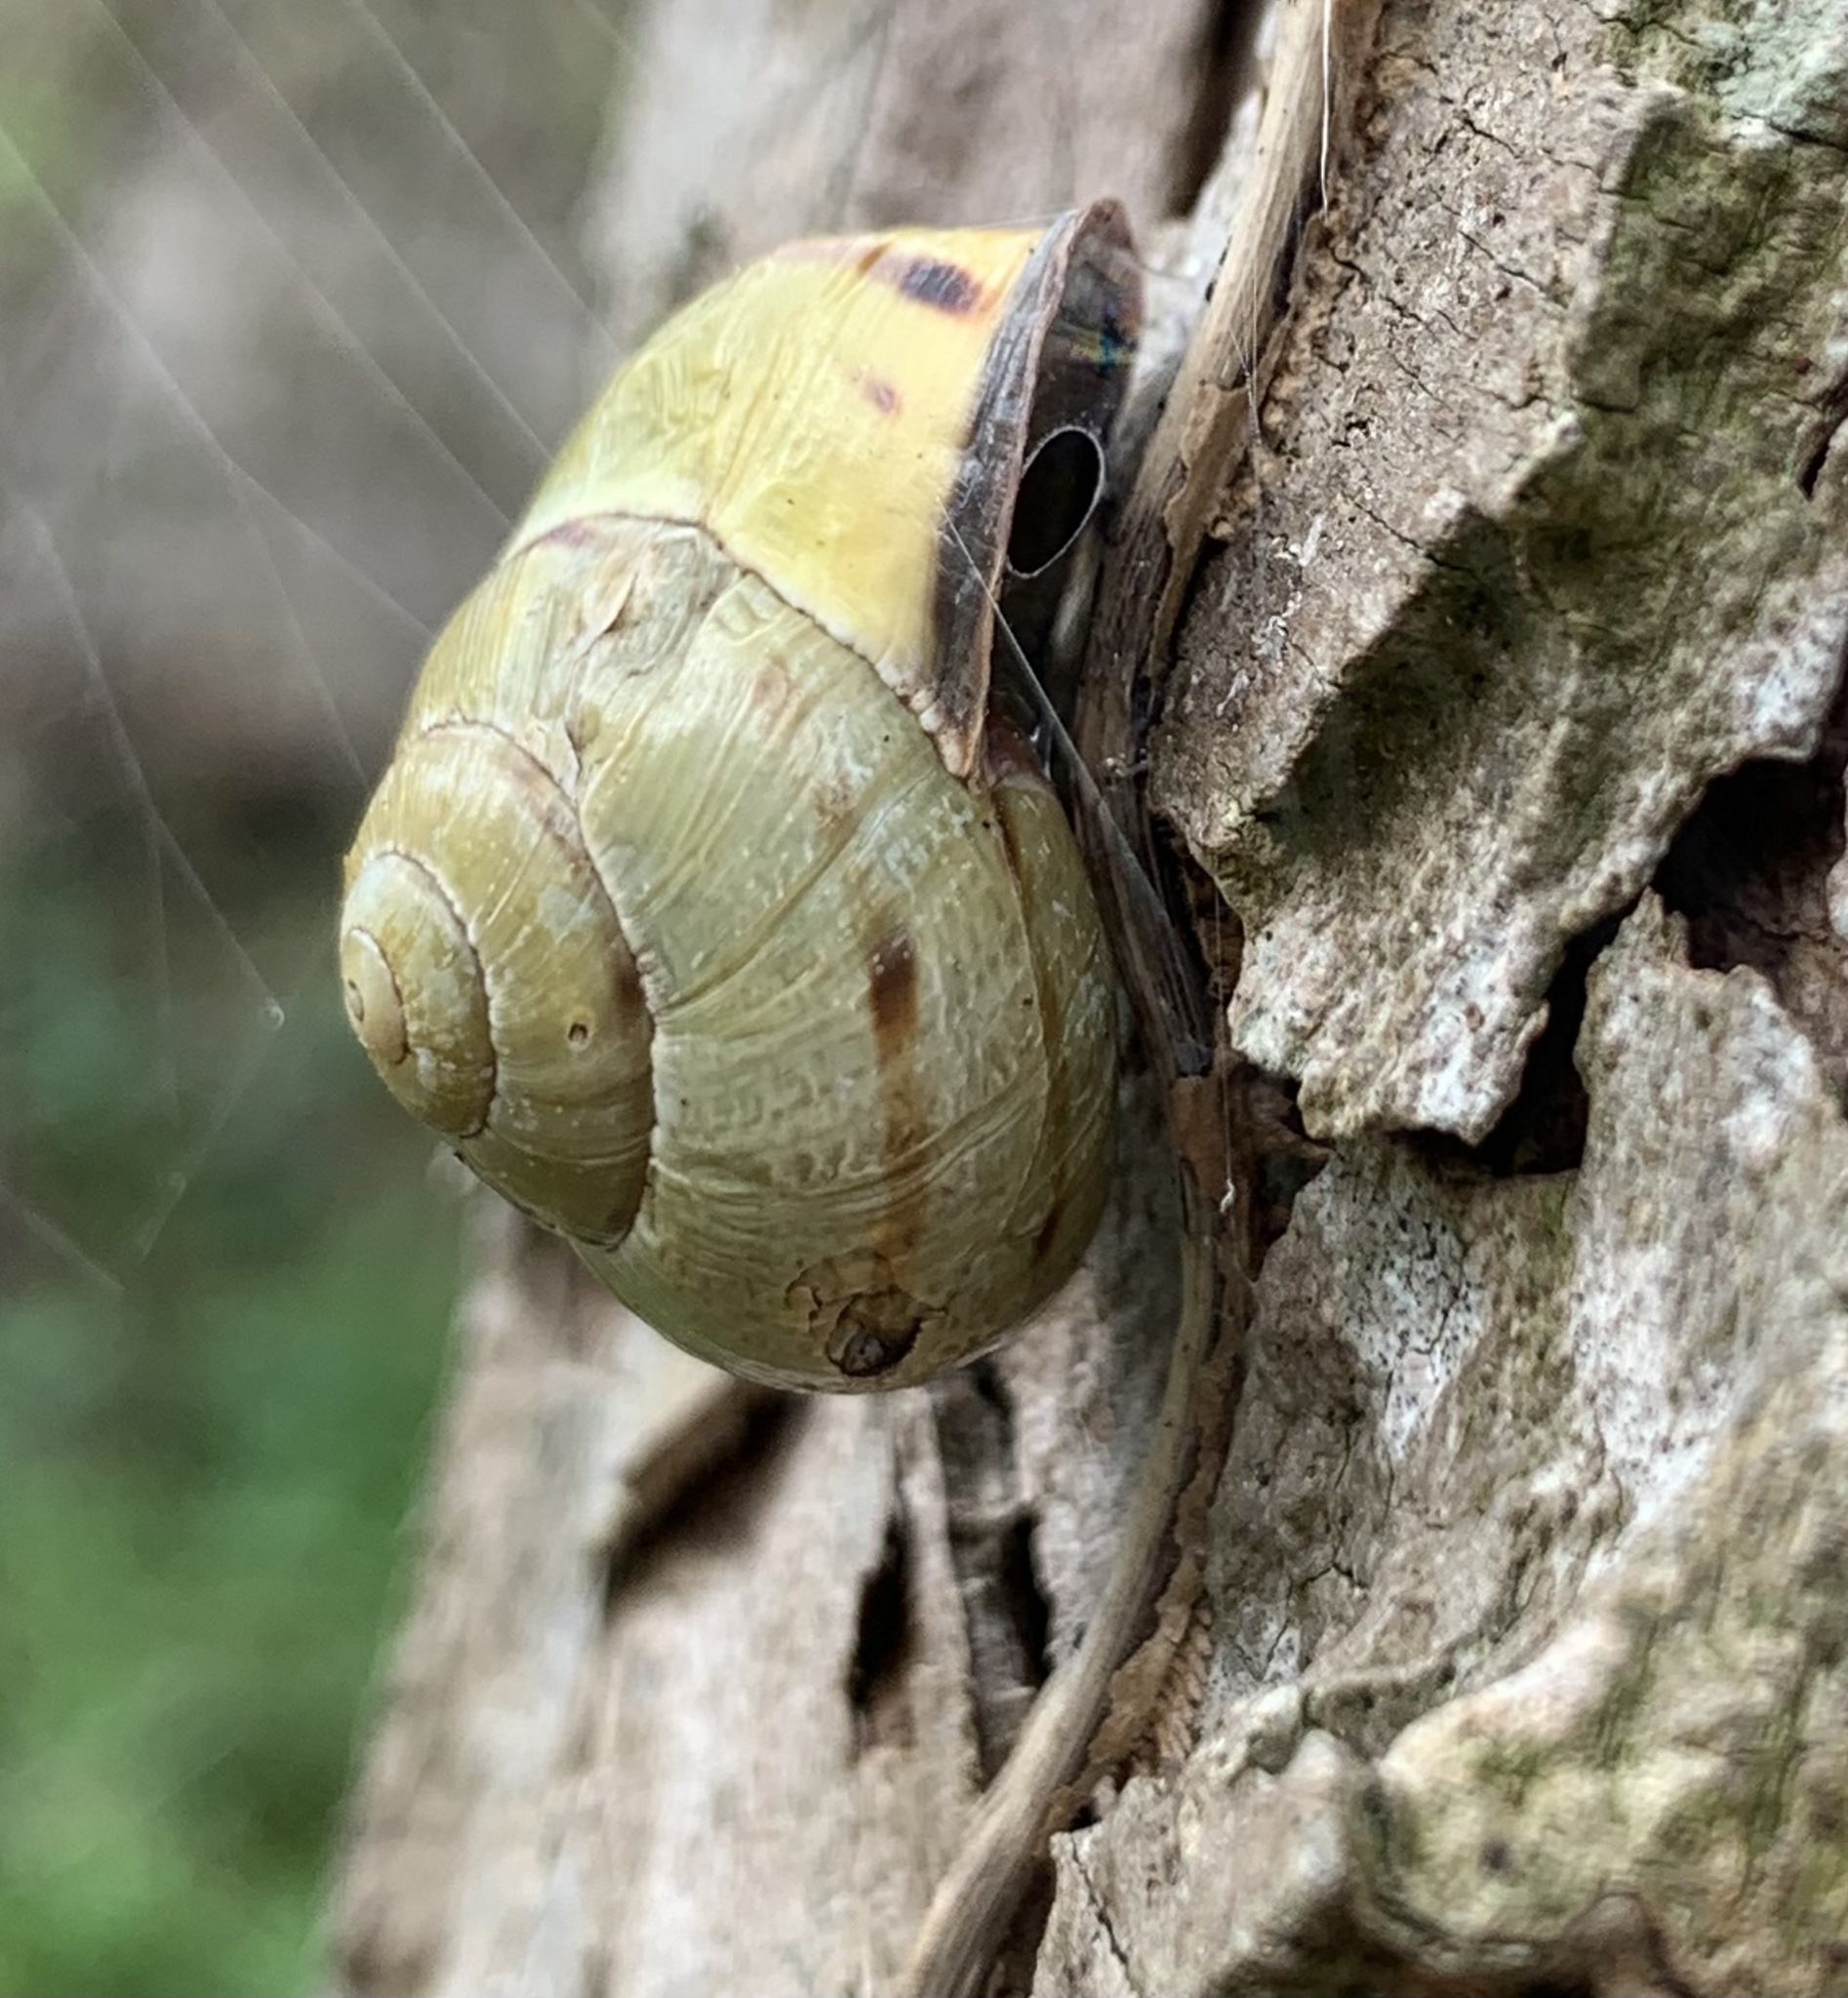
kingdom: Animalia
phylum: Mollusca
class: Gastropoda
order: Stylommatophora
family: Helicidae
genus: Cepaea
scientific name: Cepaea nemoralis
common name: Grovesnail
